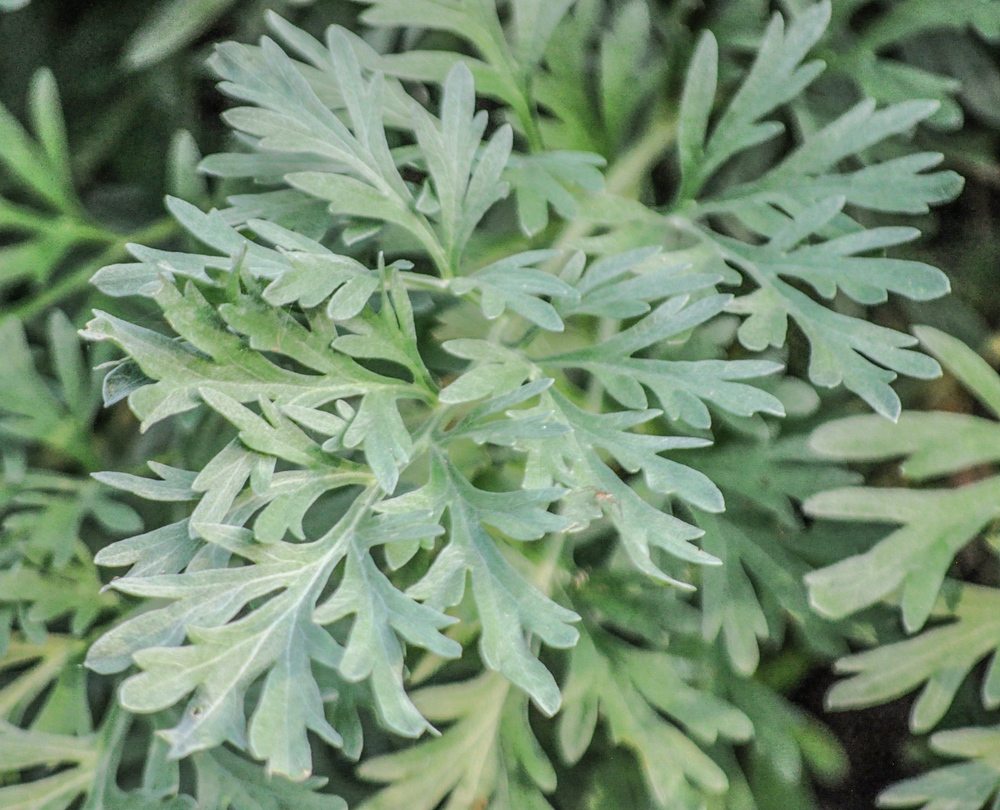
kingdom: Plantae
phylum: Tracheophyta
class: Magnoliopsida
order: Asterales
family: Asteraceae
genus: Artemisia
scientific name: Artemisia absinthium
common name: Wormwood
